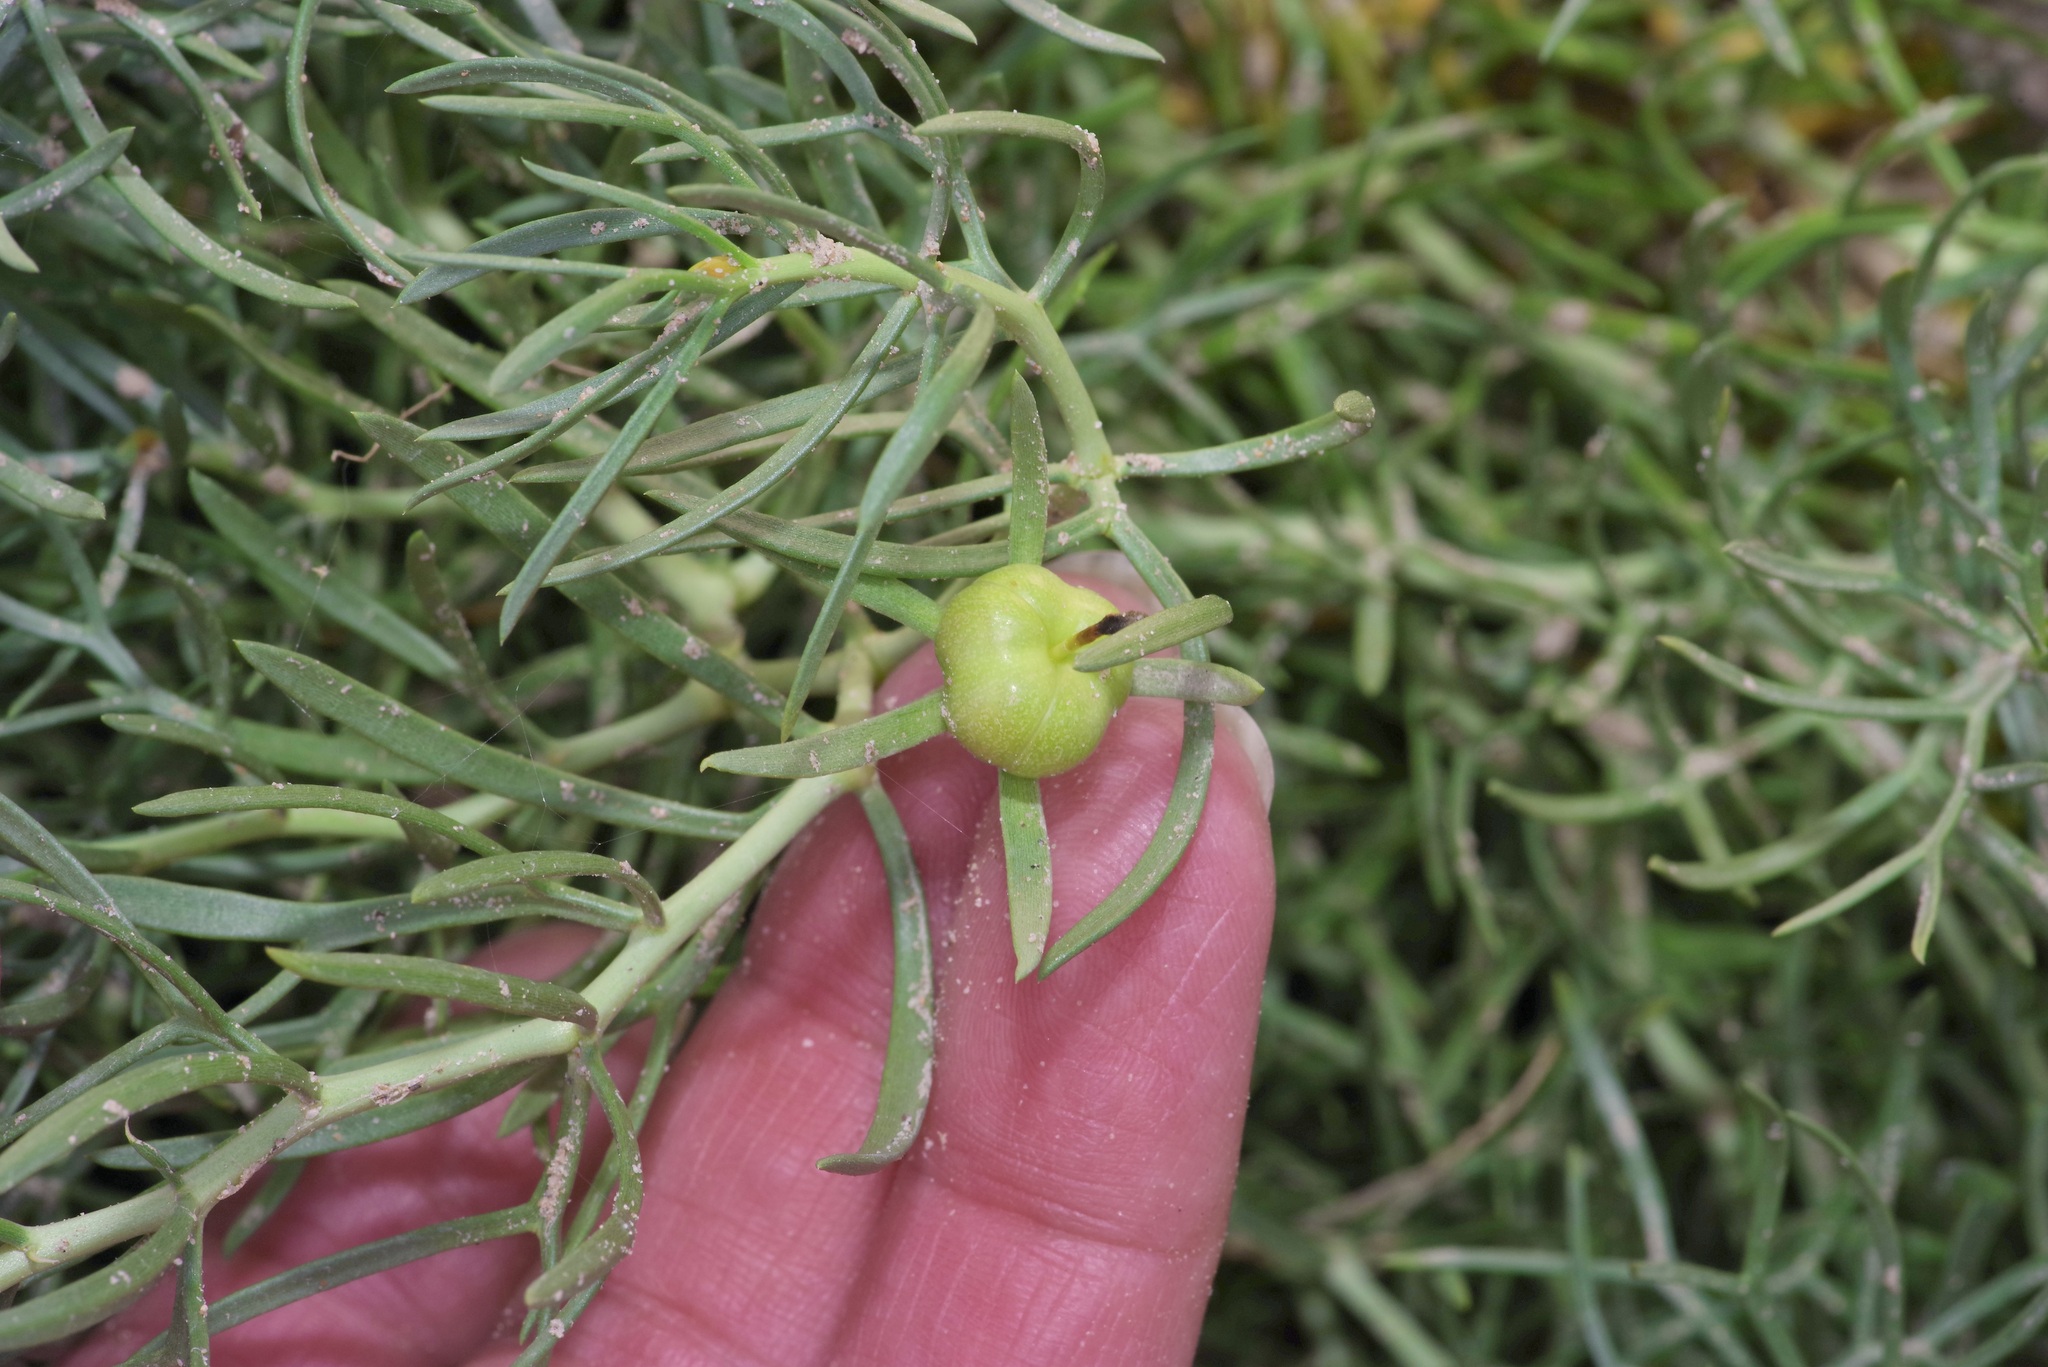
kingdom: Plantae
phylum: Tracheophyta
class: Magnoliopsida
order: Sapindales
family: Tetradiclidaceae
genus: Peganum
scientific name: Peganum harmala
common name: Harmal peganum
